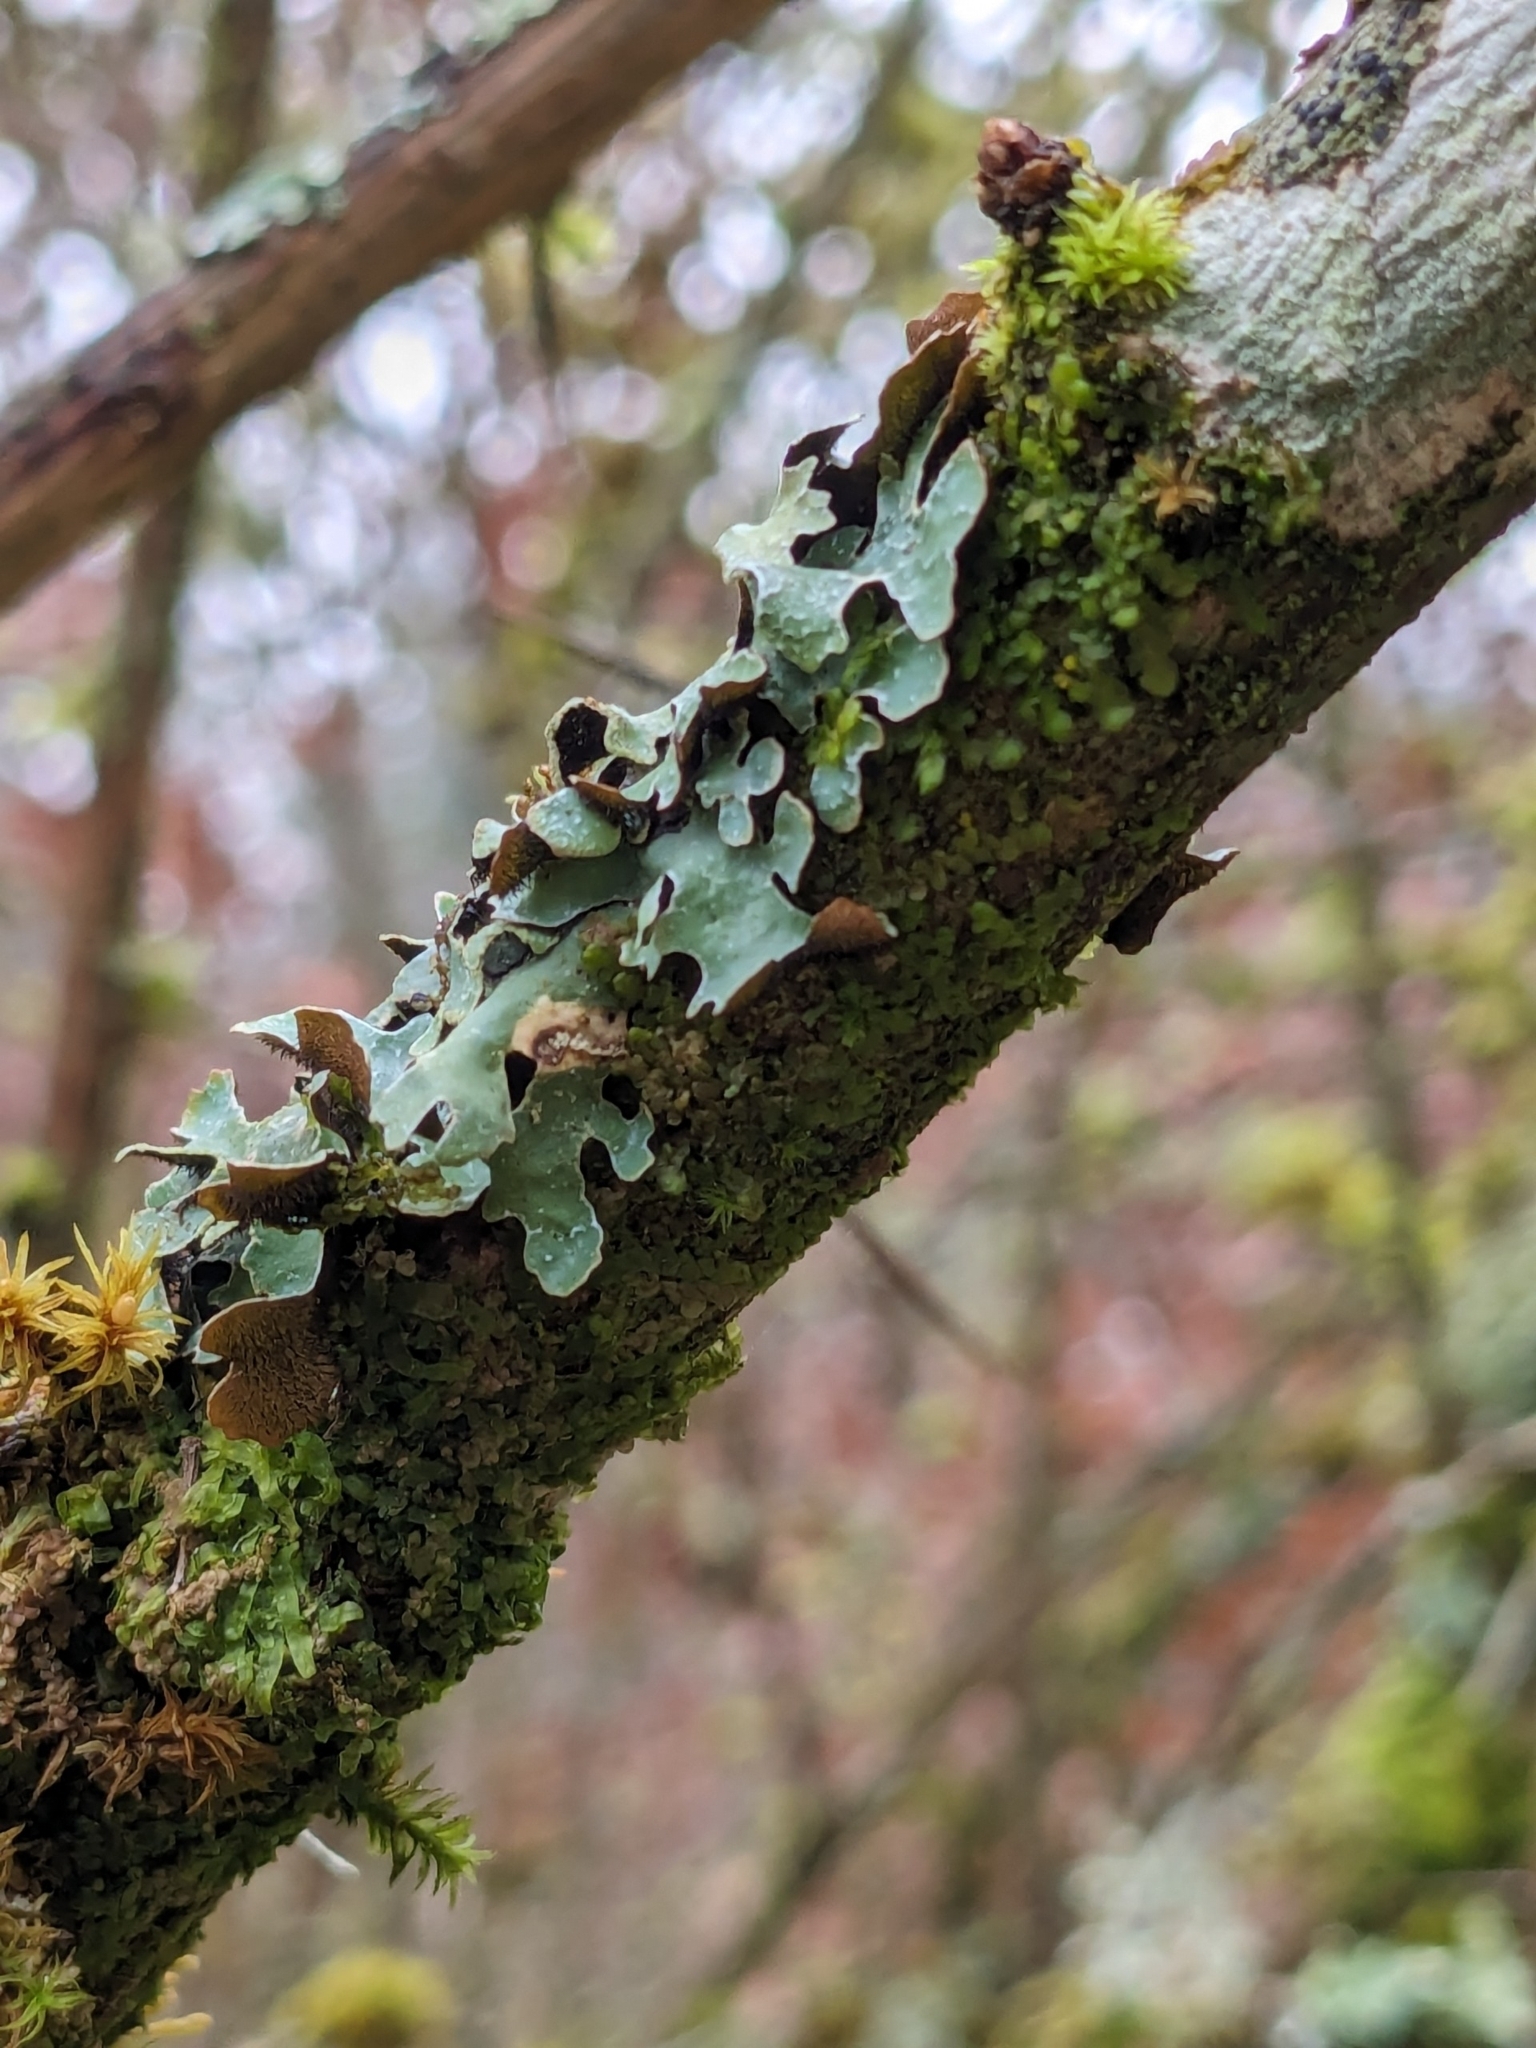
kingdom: Fungi
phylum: Ascomycota
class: Lecanoromycetes
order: Lecanorales
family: Parmeliaceae
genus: Parmelia
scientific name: Parmelia sulcata
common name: Netted shield lichen
